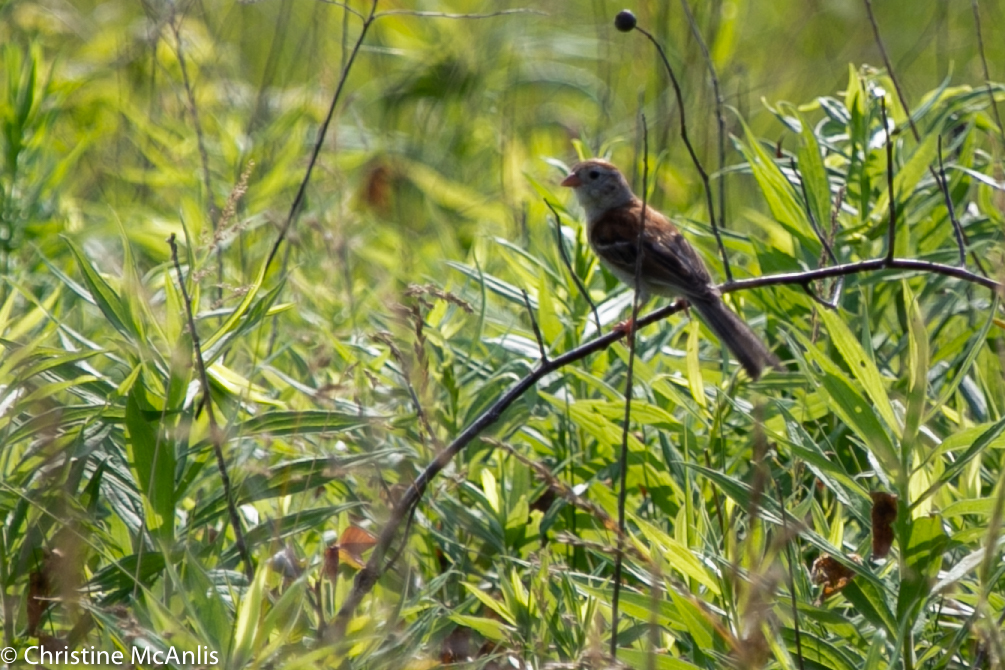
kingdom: Animalia
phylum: Chordata
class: Aves
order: Passeriformes
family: Passerellidae
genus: Spizella
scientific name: Spizella pusilla
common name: Field sparrow
